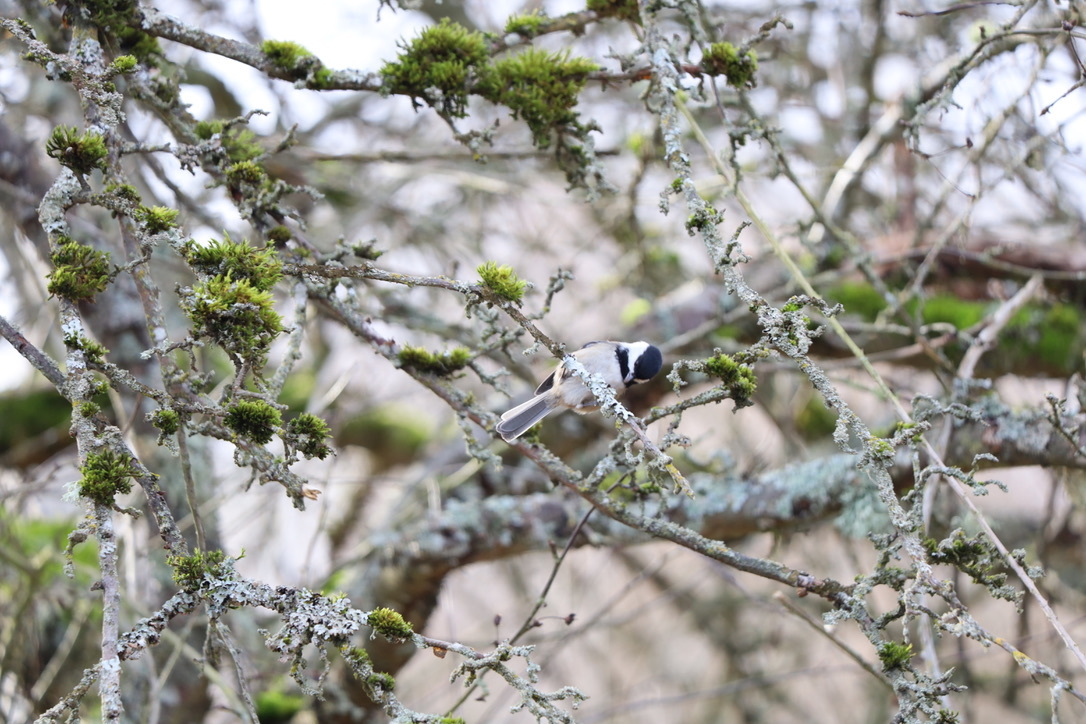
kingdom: Animalia
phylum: Chordata
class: Aves
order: Passeriformes
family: Paridae
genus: Poecile
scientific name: Poecile atricapillus
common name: Black-capped chickadee
